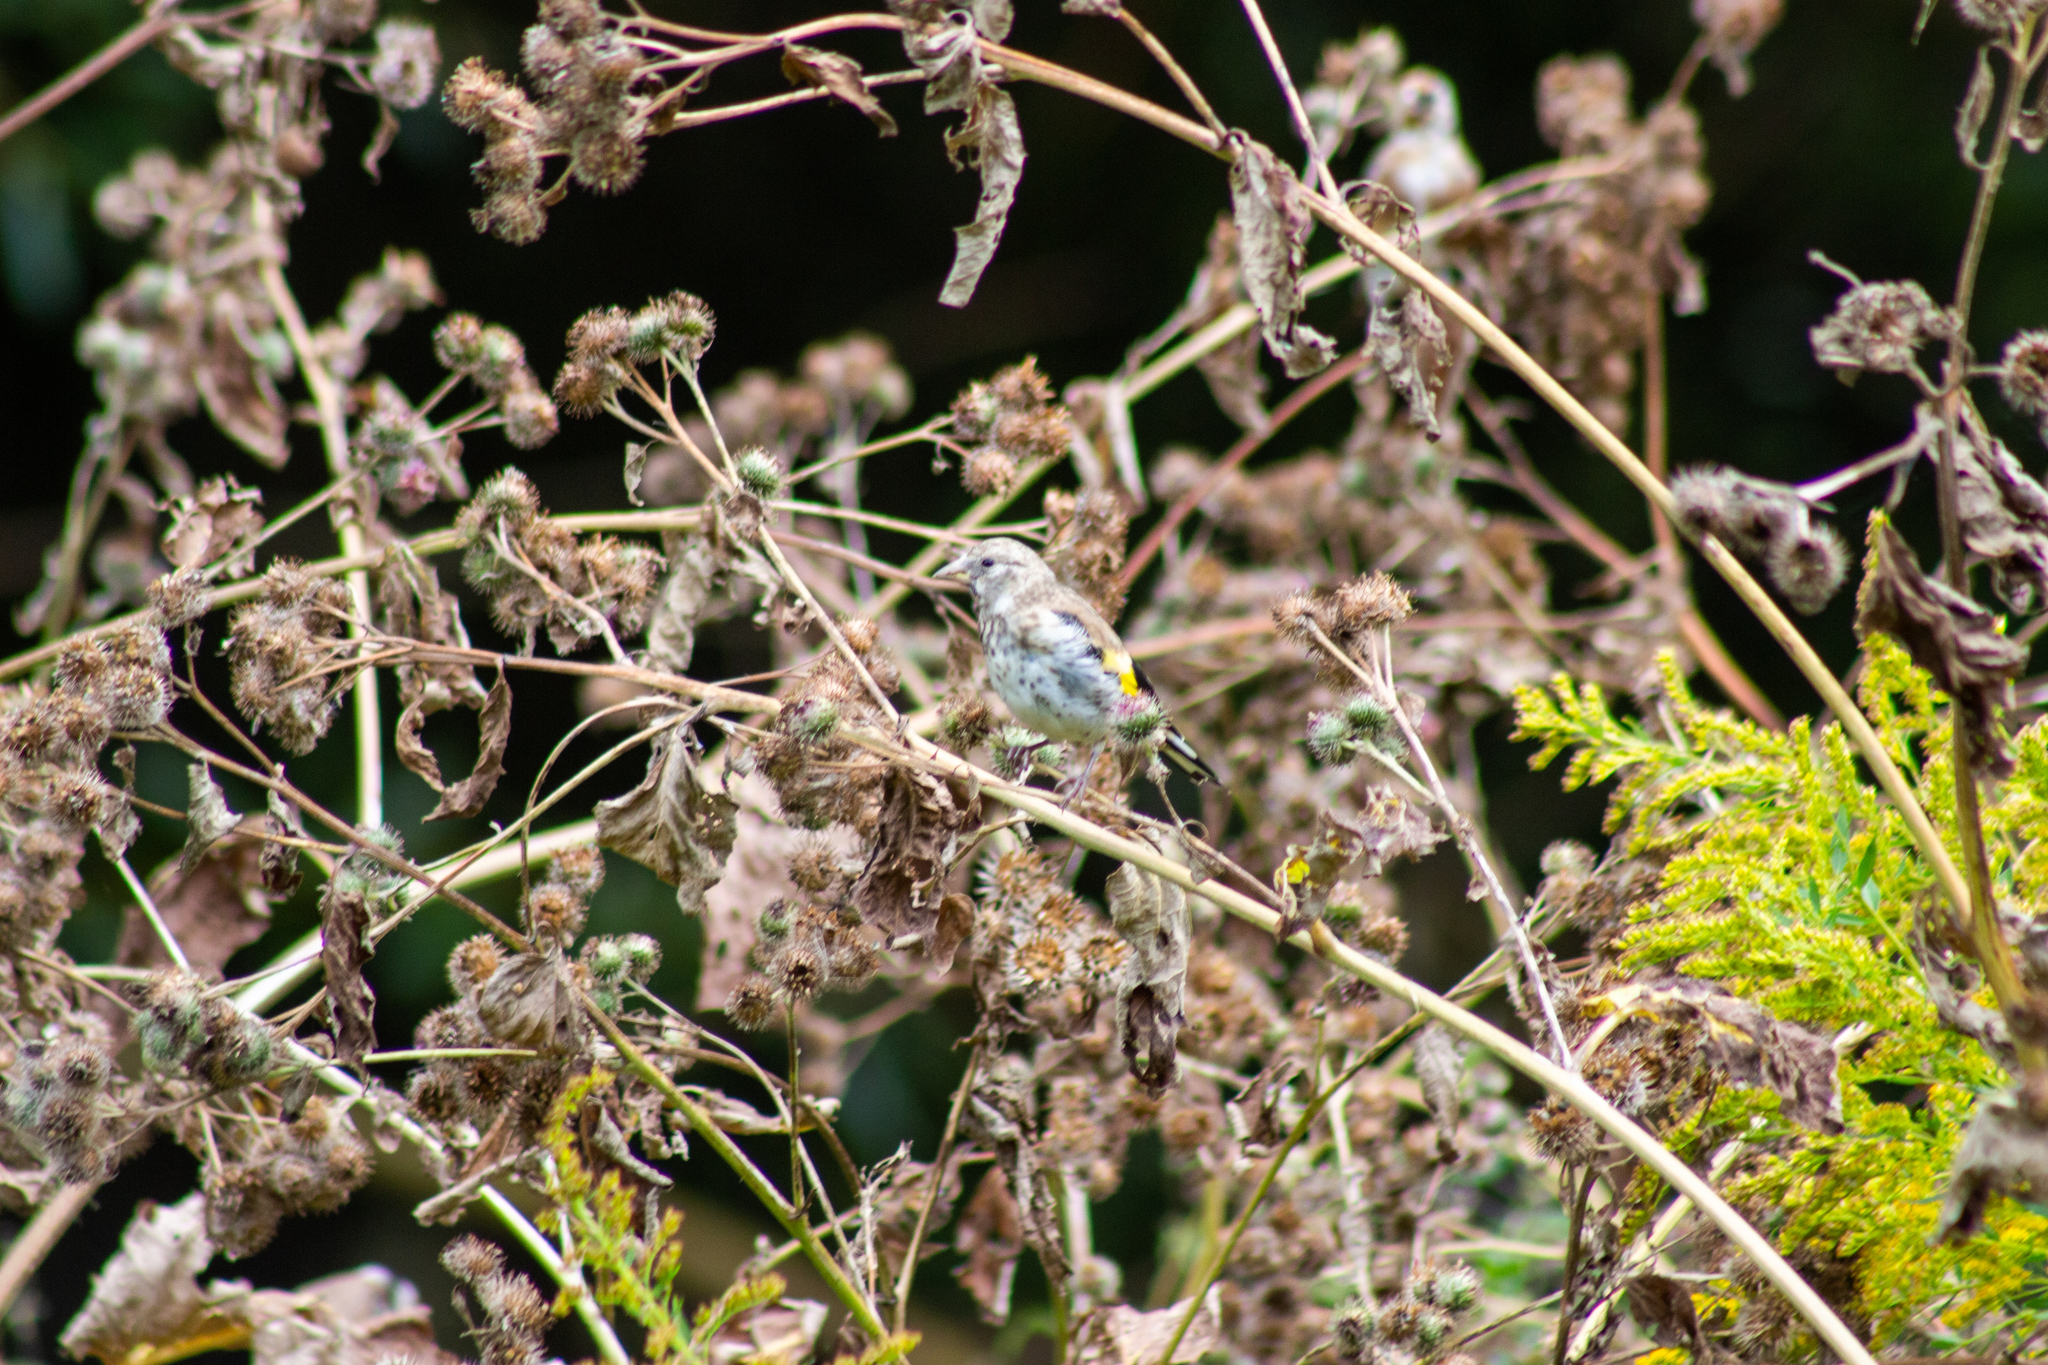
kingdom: Animalia
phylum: Chordata
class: Aves
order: Passeriformes
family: Fringillidae
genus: Carduelis
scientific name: Carduelis carduelis
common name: European goldfinch
